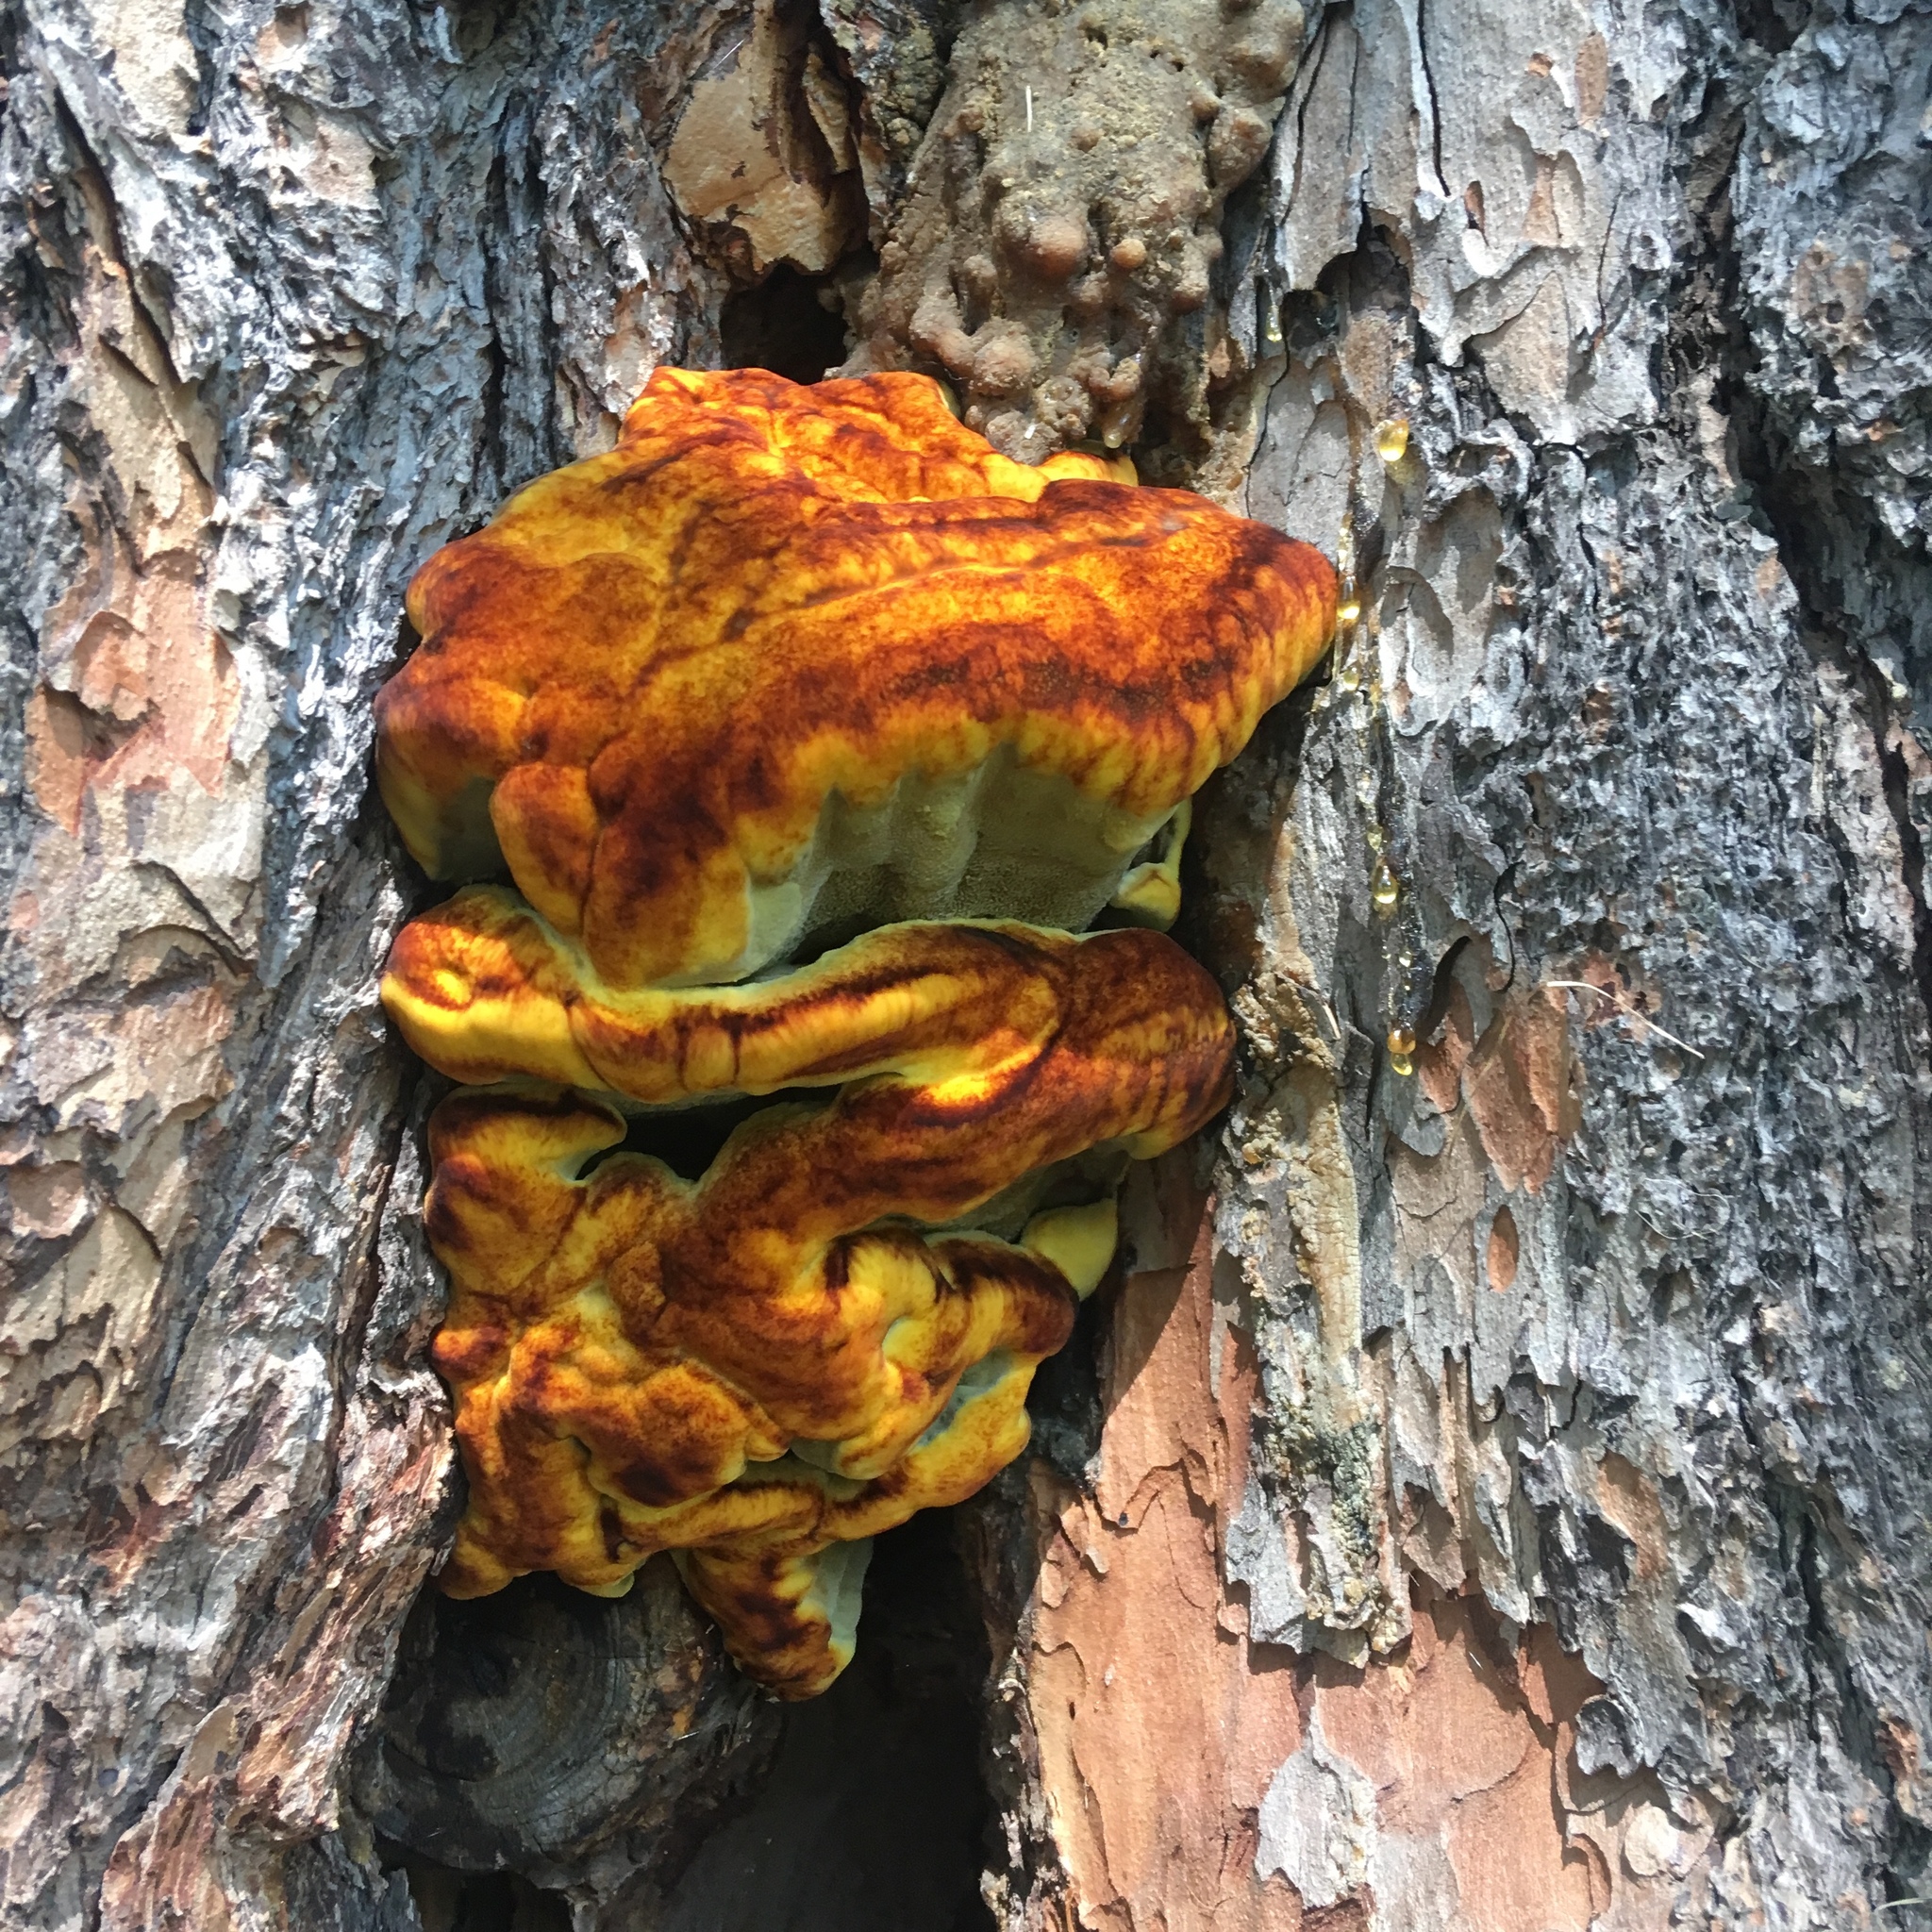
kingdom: Fungi
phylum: Basidiomycota
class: Agaricomycetes
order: Polyporales
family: Laetiporaceae
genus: Phaeolus
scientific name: Phaeolus schweinitzii
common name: Dyer's mazegill
